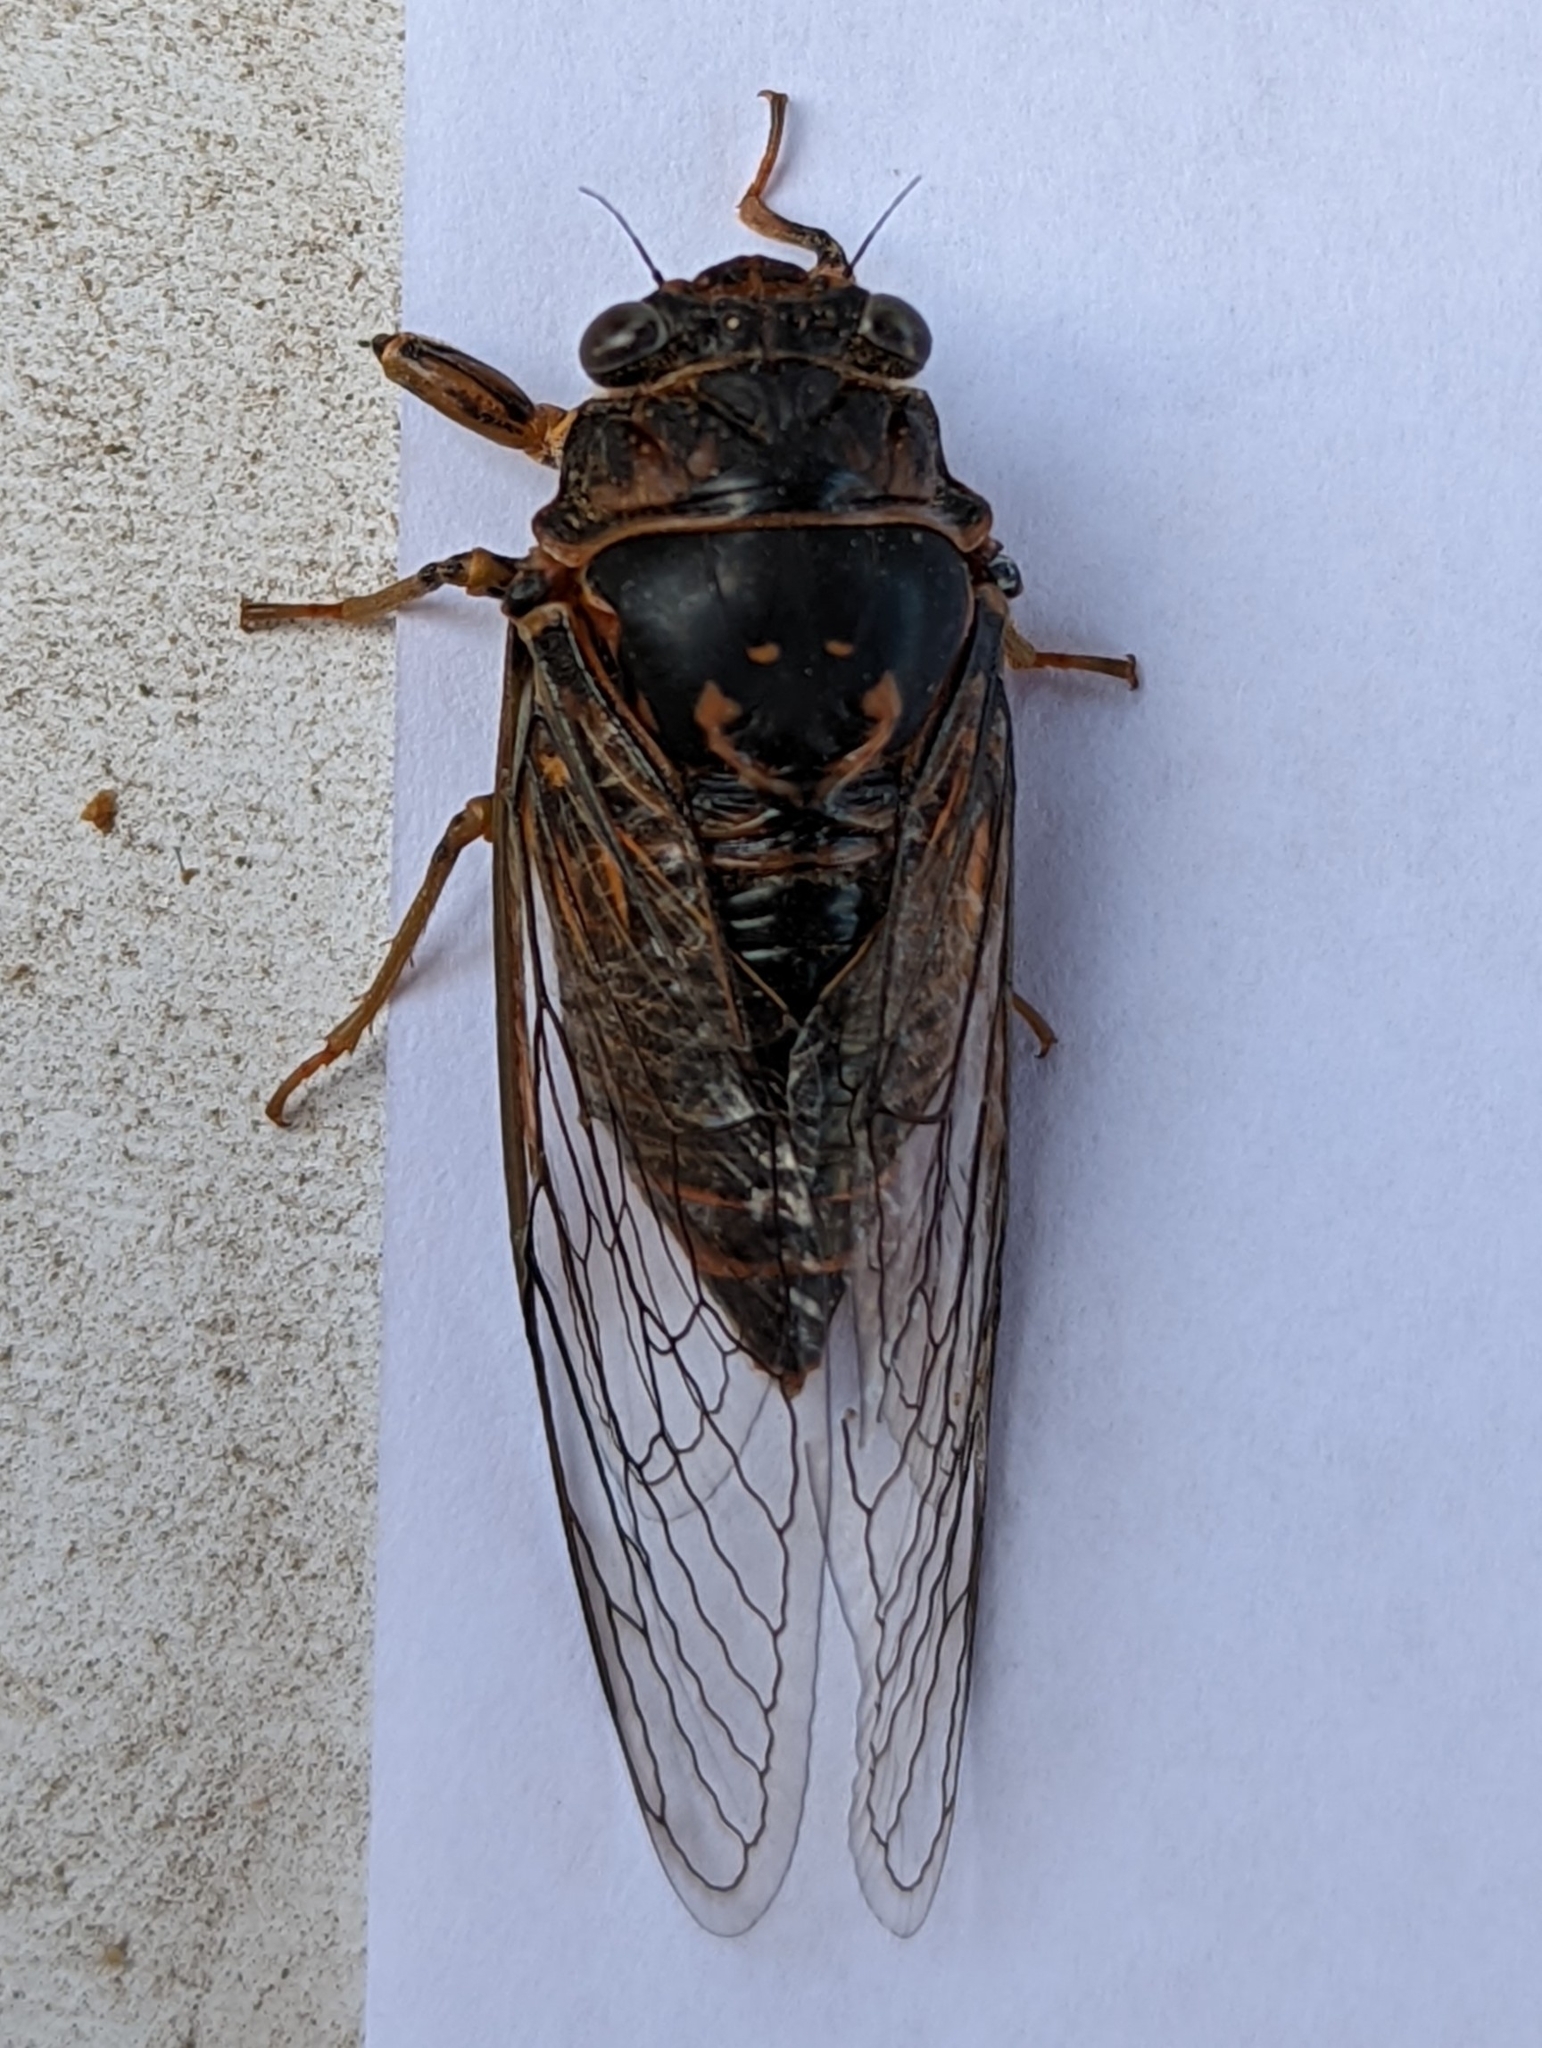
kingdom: Animalia
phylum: Arthropoda
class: Insecta
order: Hemiptera
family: Cicadidae
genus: Okanagana
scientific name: Okanagana arboraria
